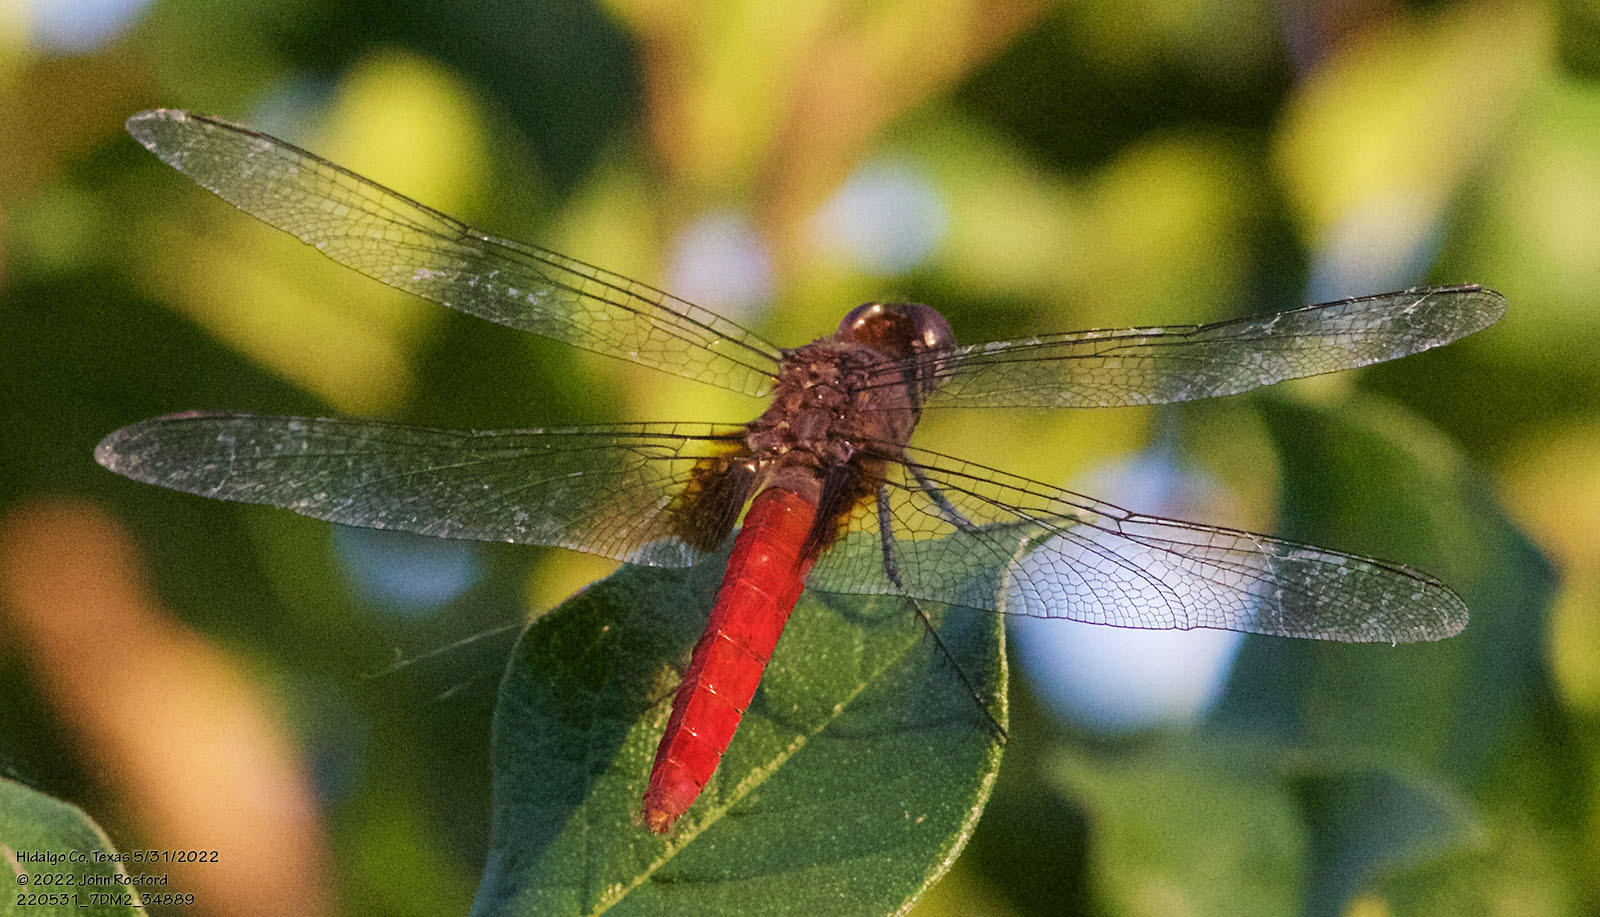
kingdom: Animalia
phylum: Arthropoda
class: Insecta
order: Odonata
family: Libellulidae
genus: Planiplax
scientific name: Planiplax sanguiniventris
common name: Mexican scarlet-tail
